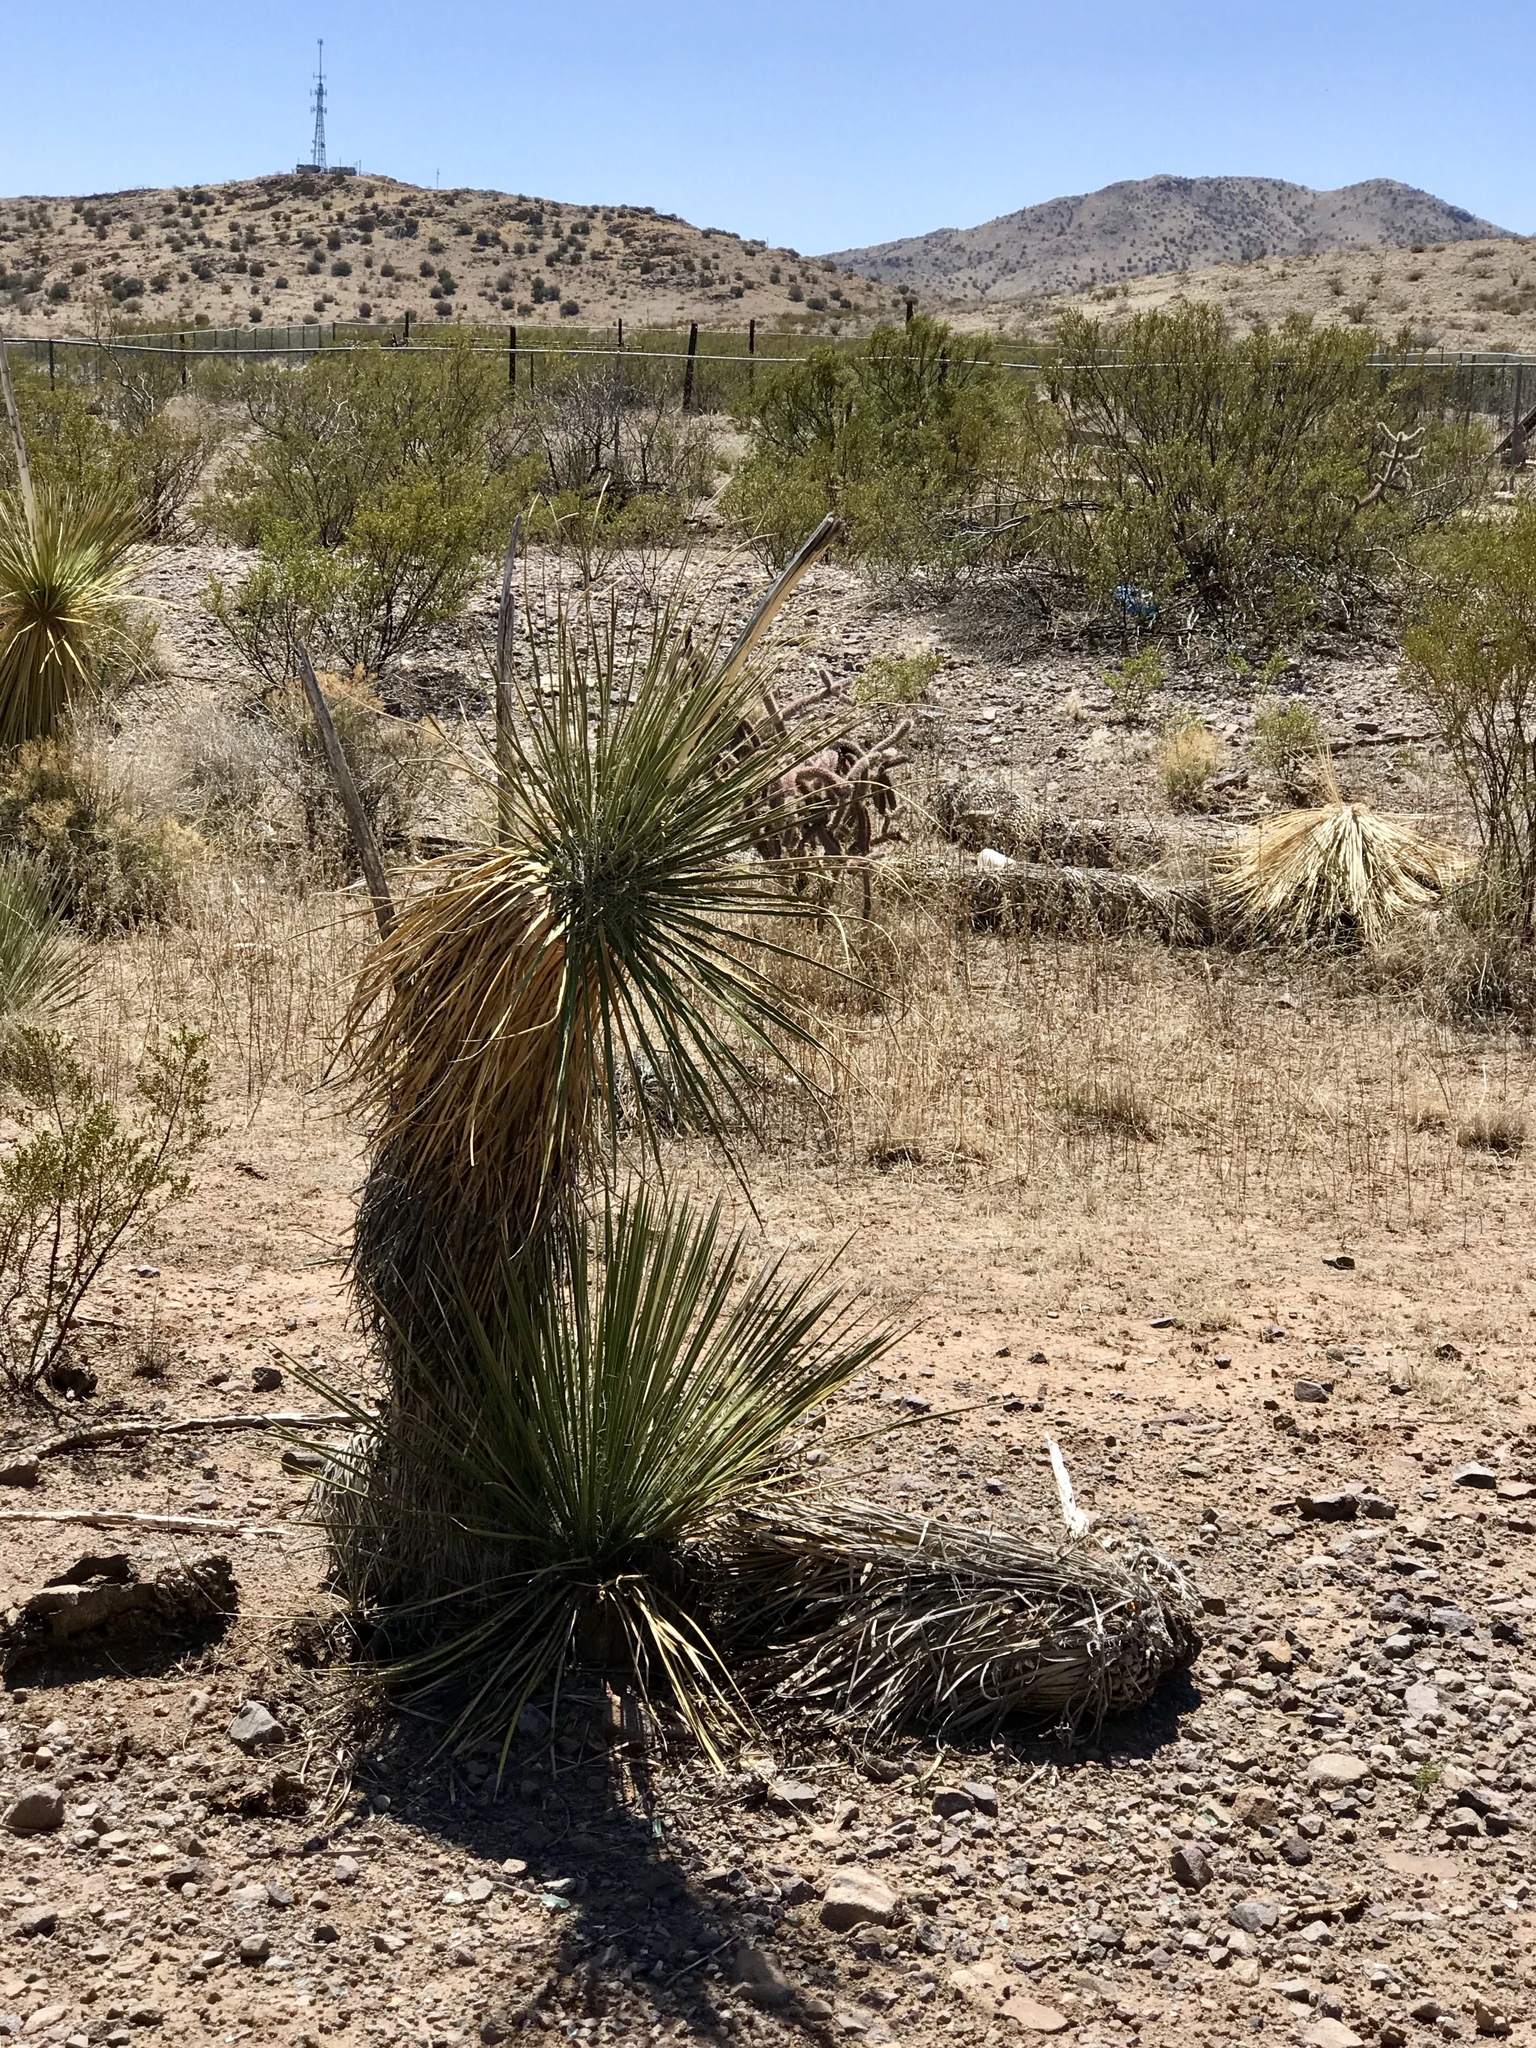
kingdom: Plantae
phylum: Tracheophyta
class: Liliopsida
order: Asparagales
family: Asparagaceae
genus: Yucca
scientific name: Yucca elata
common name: Palmella
